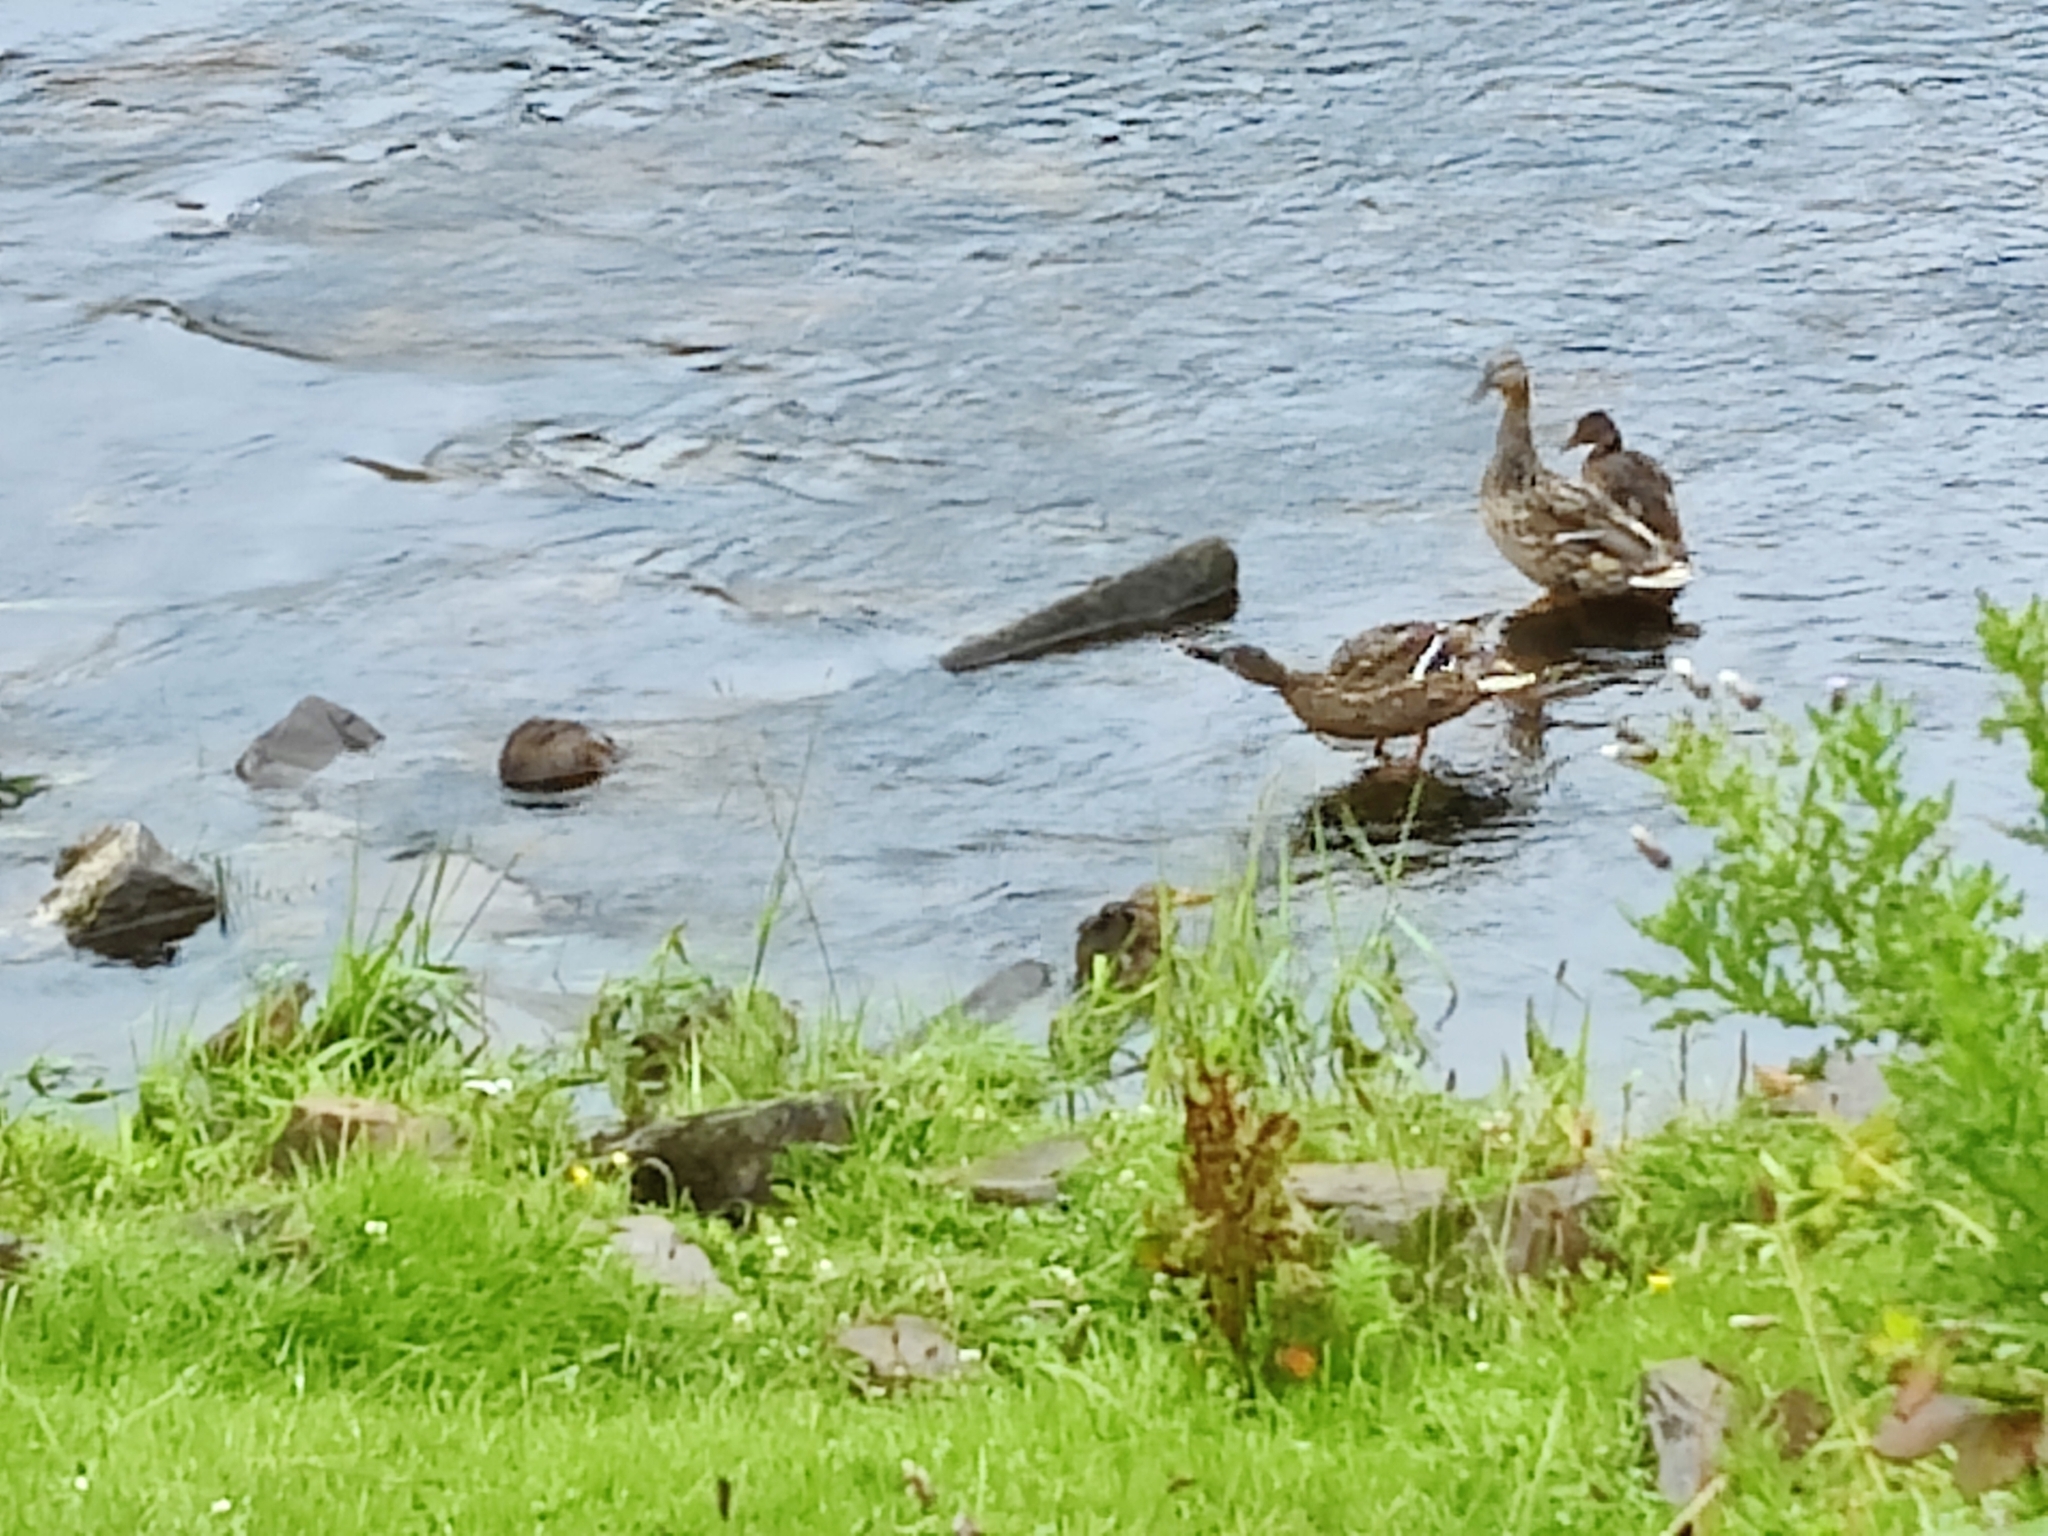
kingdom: Animalia
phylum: Chordata
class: Aves
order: Anseriformes
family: Anatidae
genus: Anas
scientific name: Anas platyrhynchos
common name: Mallard
